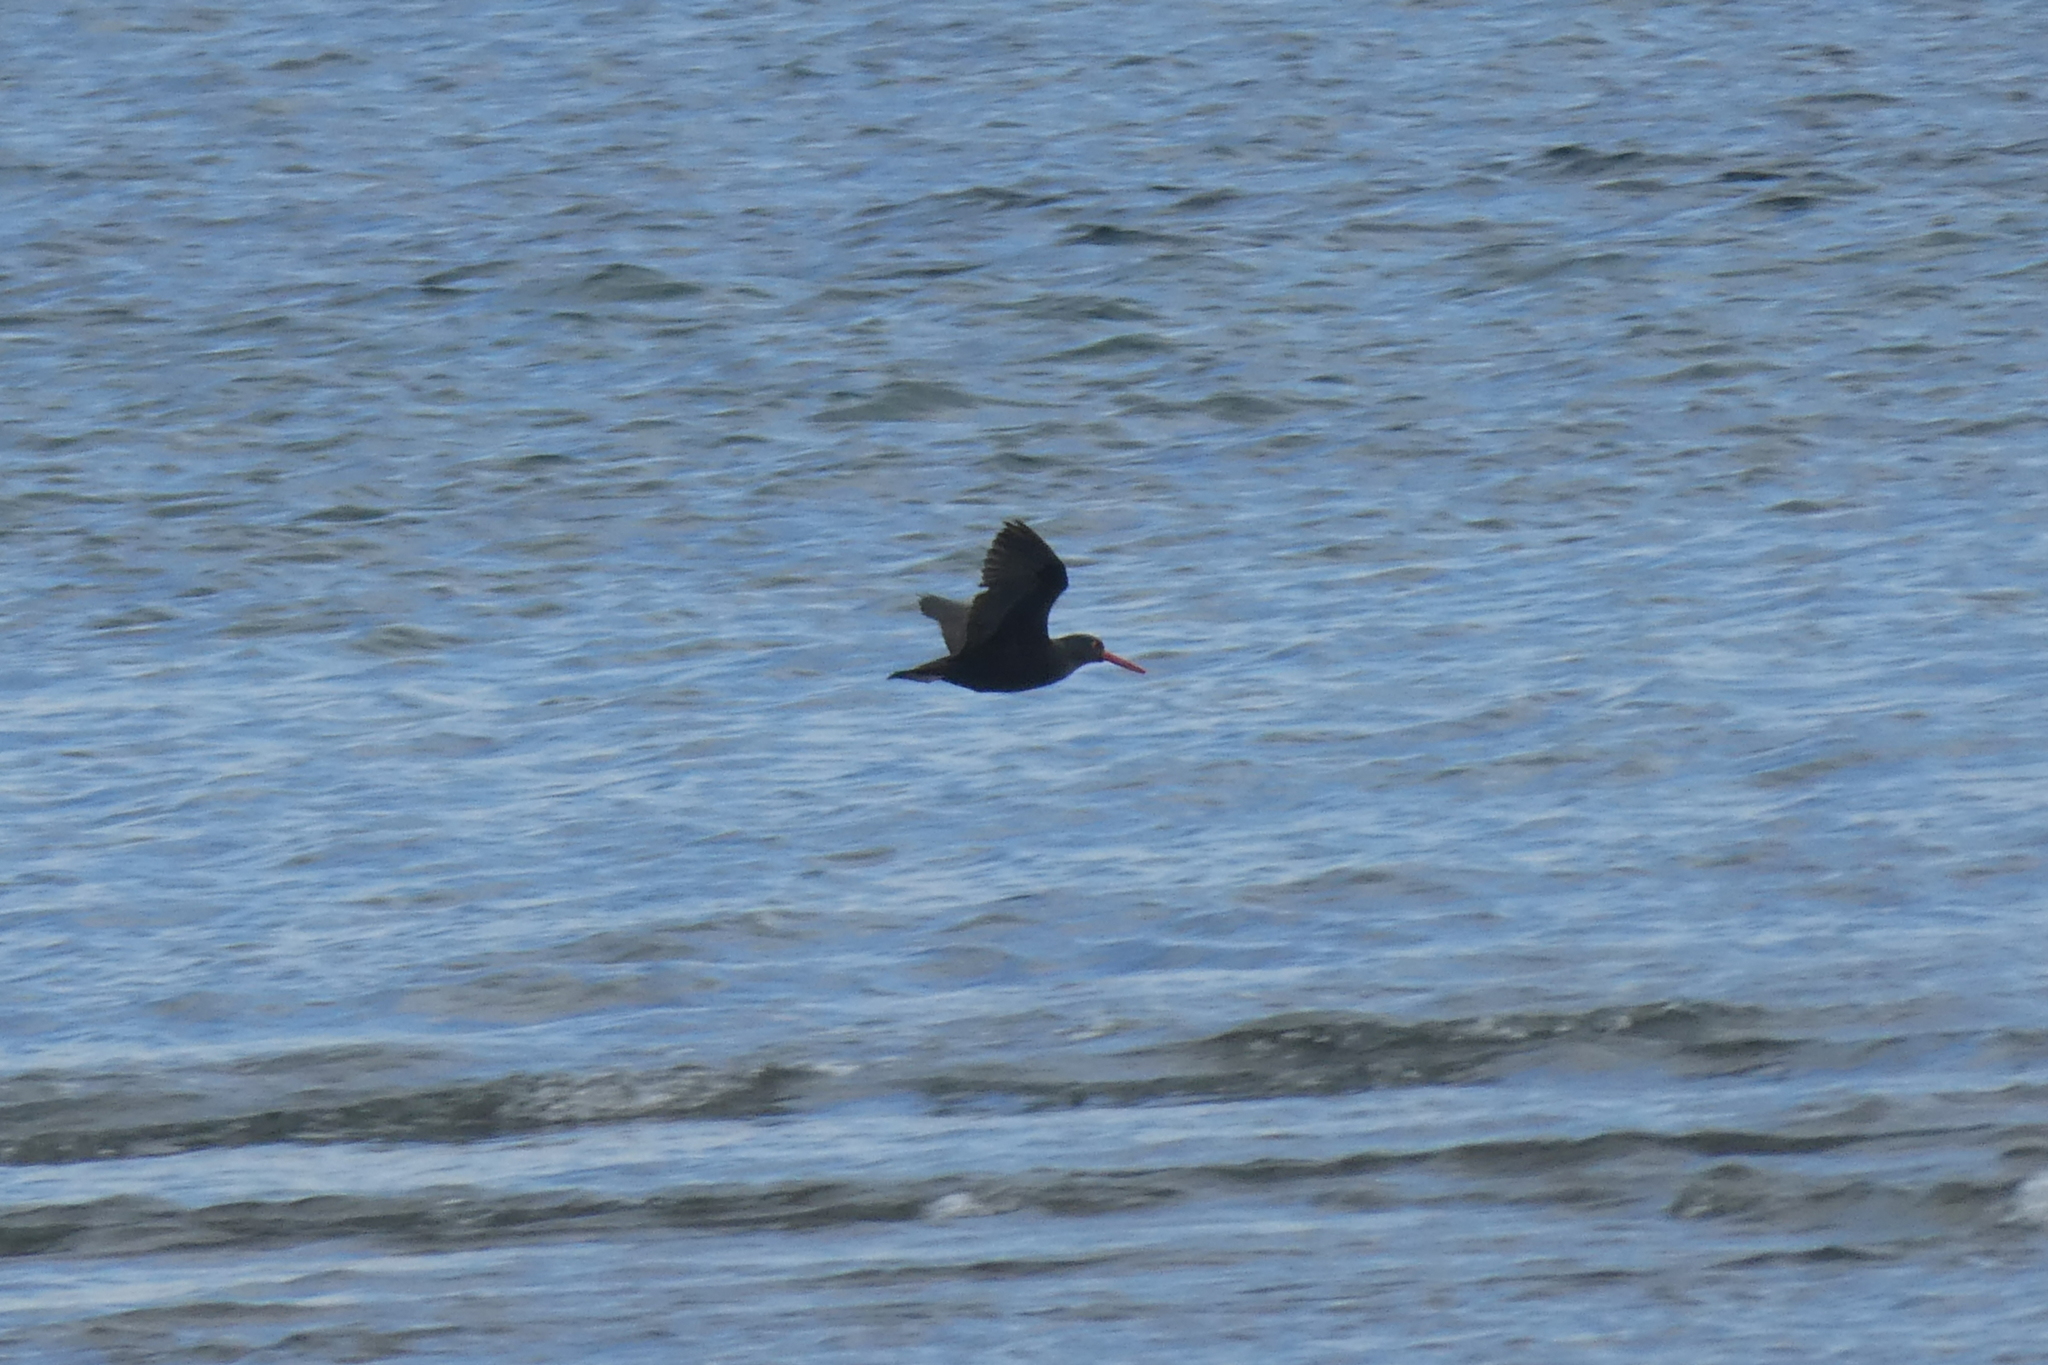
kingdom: Animalia
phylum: Chordata
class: Aves
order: Charadriiformes
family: Haematopodidae
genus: Haematopus
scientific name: Haematopus bachmani
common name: Black oystercatcher
